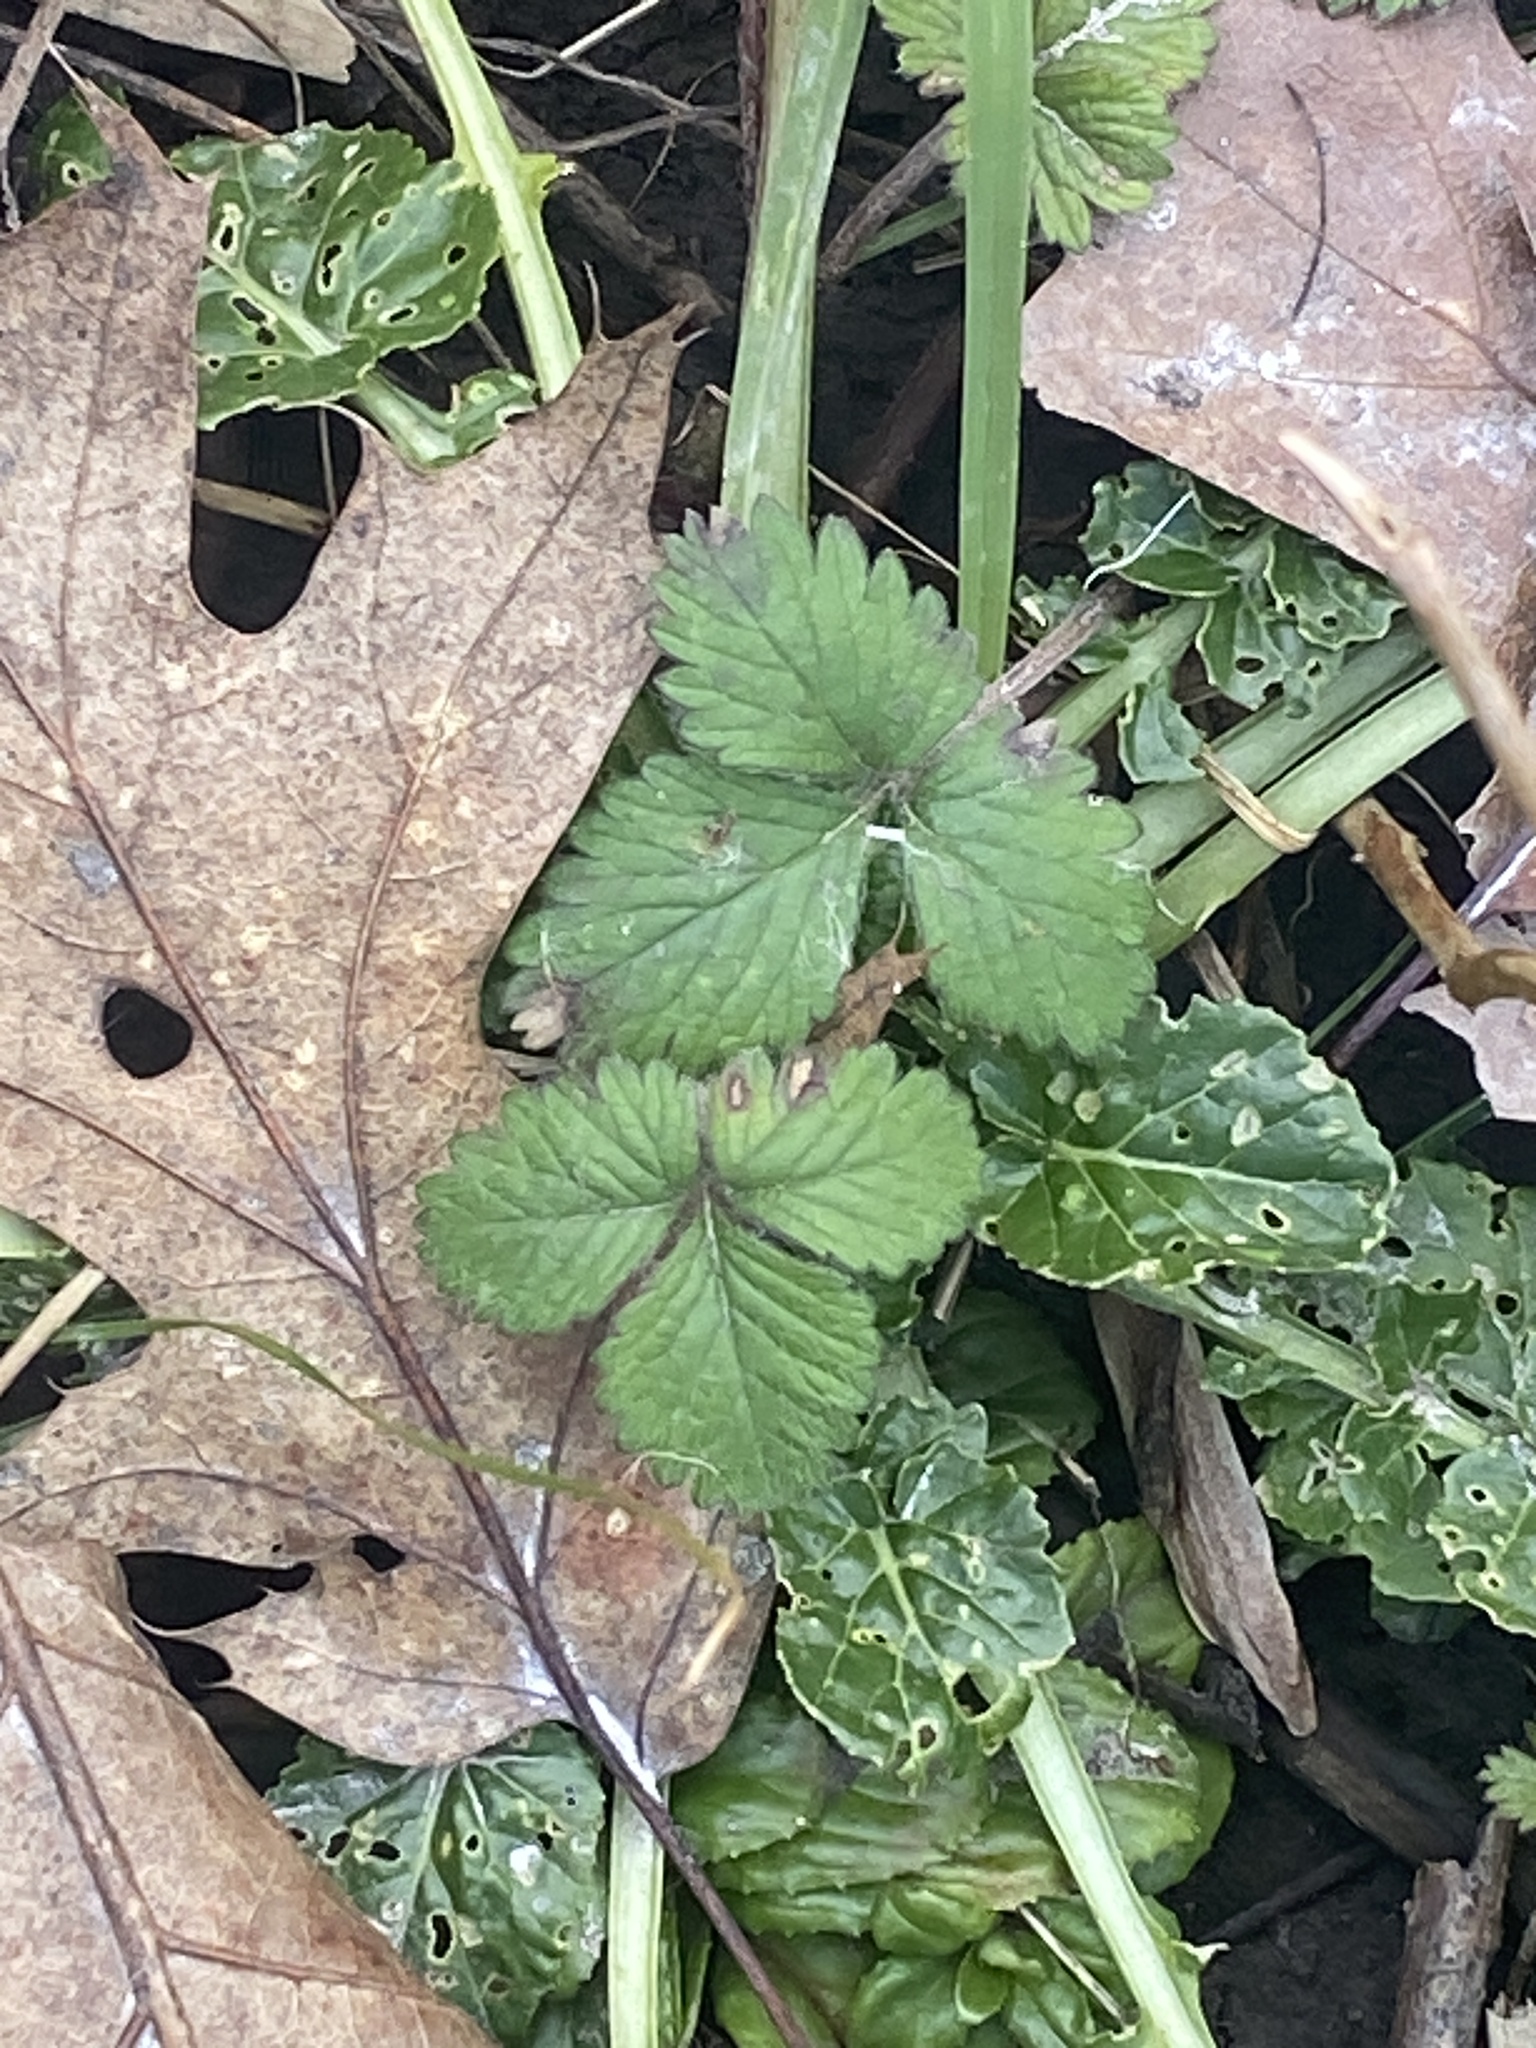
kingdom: Plantae
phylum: Tracheophyta
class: Magnoliopsida
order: Rosales
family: Rosaceae
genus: Potentilla
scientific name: Potentilla indica
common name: Yellow-flowered strawberry
